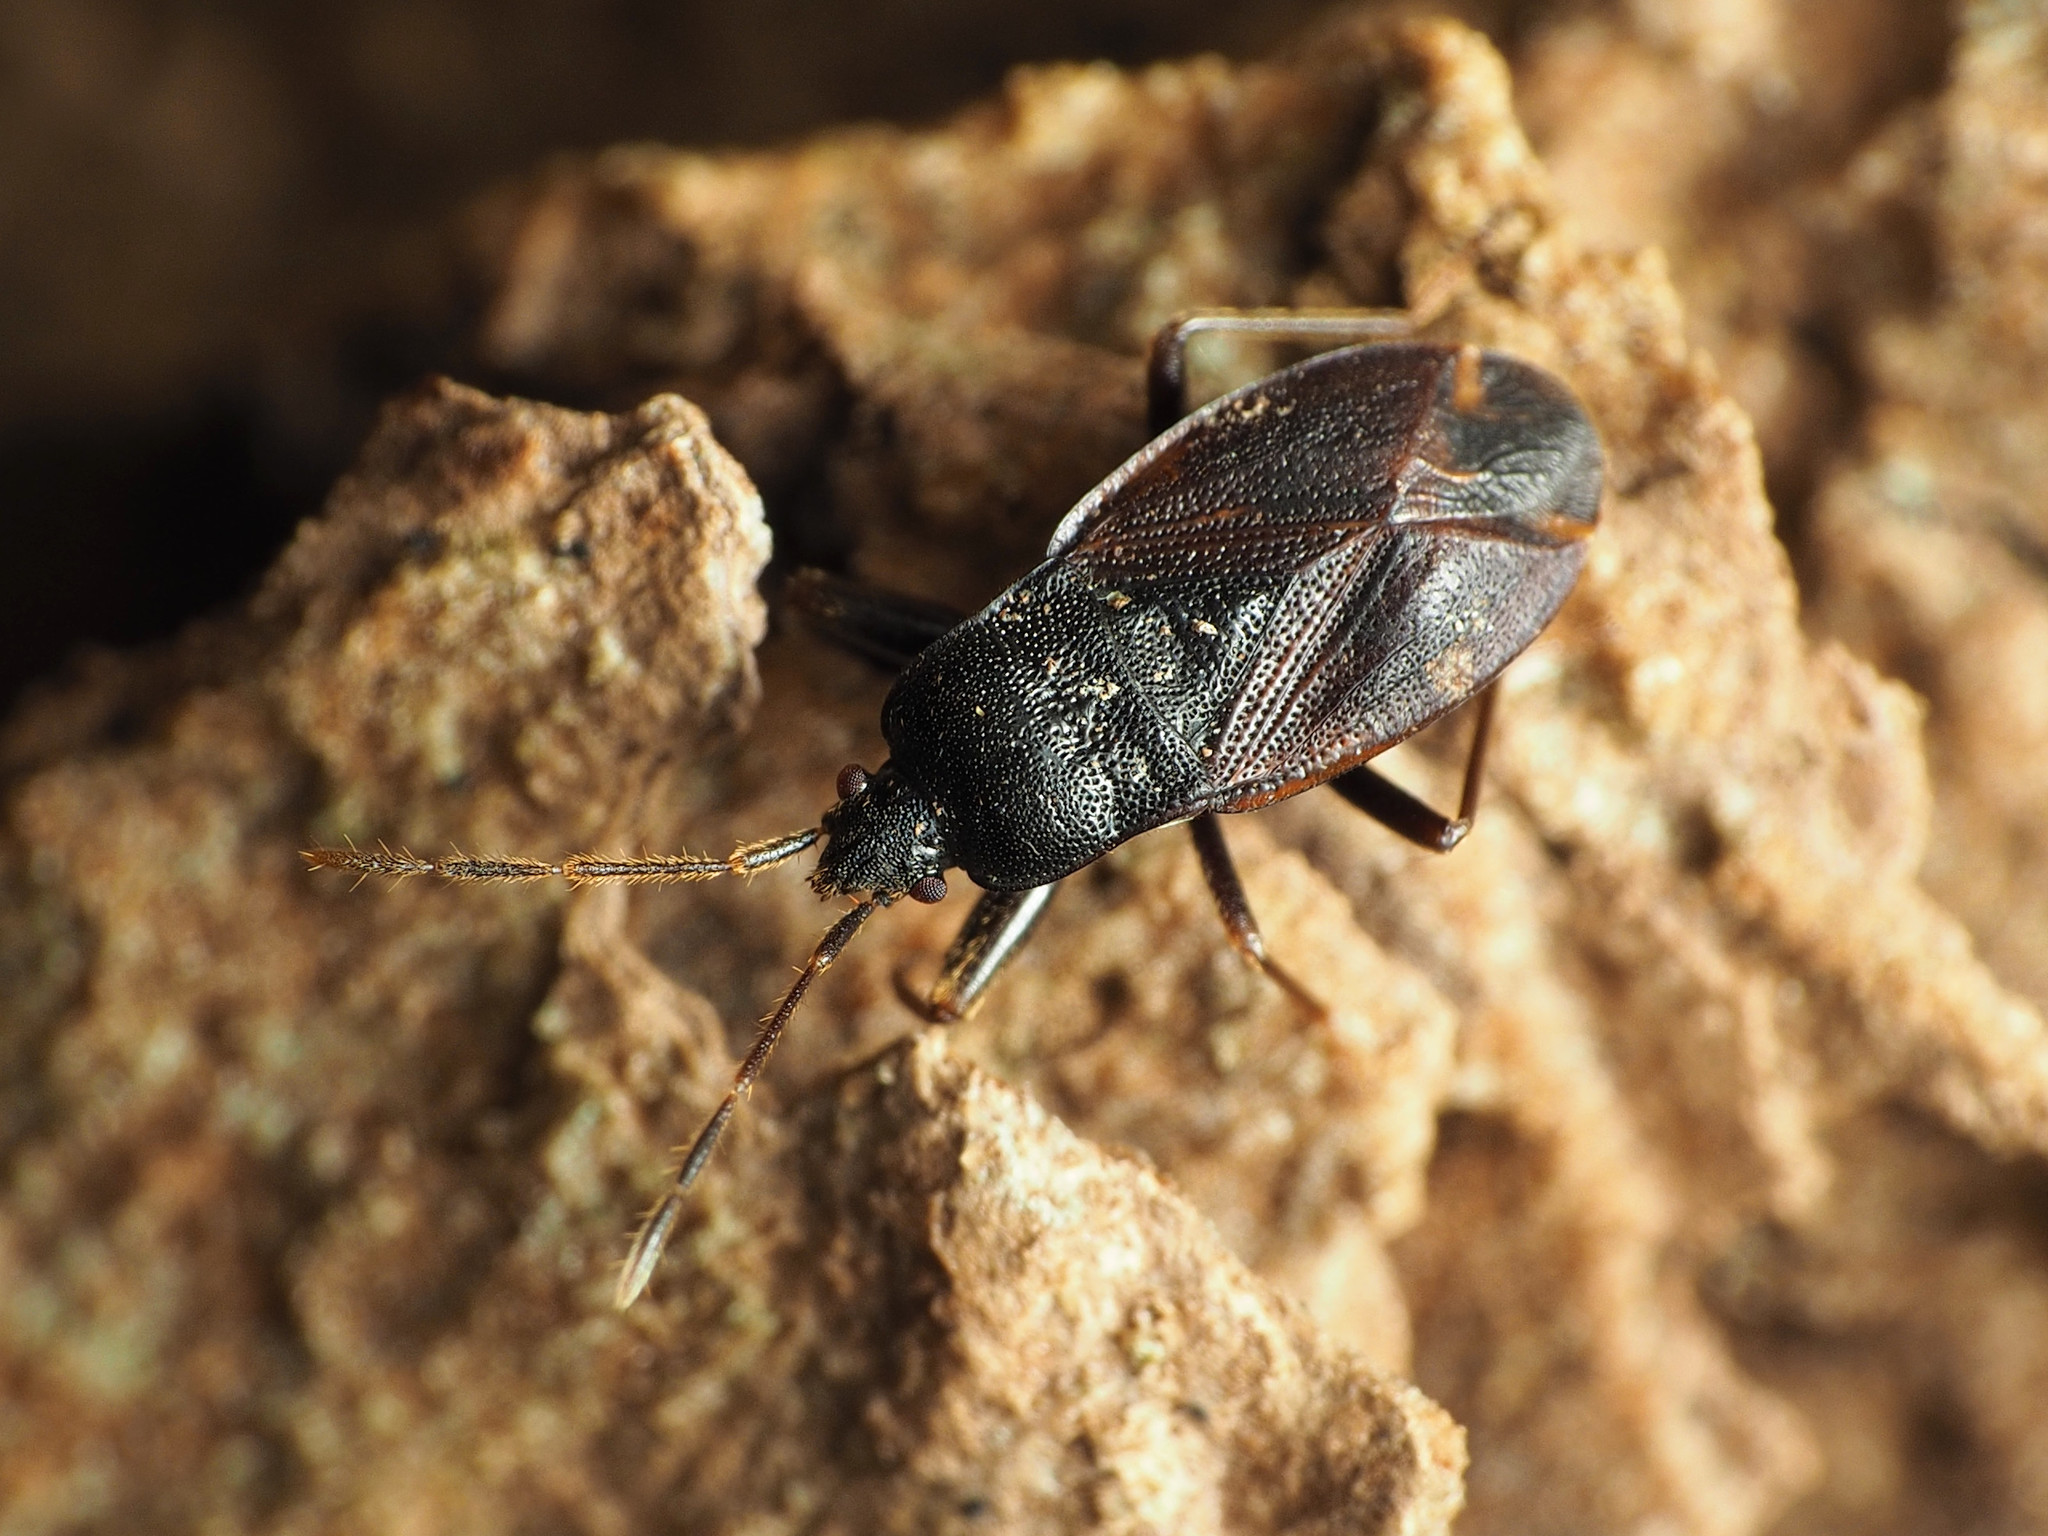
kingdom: Animalia
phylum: Arthropoda
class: Insecta
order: Hemiptera
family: Rhyparochromidae
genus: Drymus
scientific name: Drymus crassus
